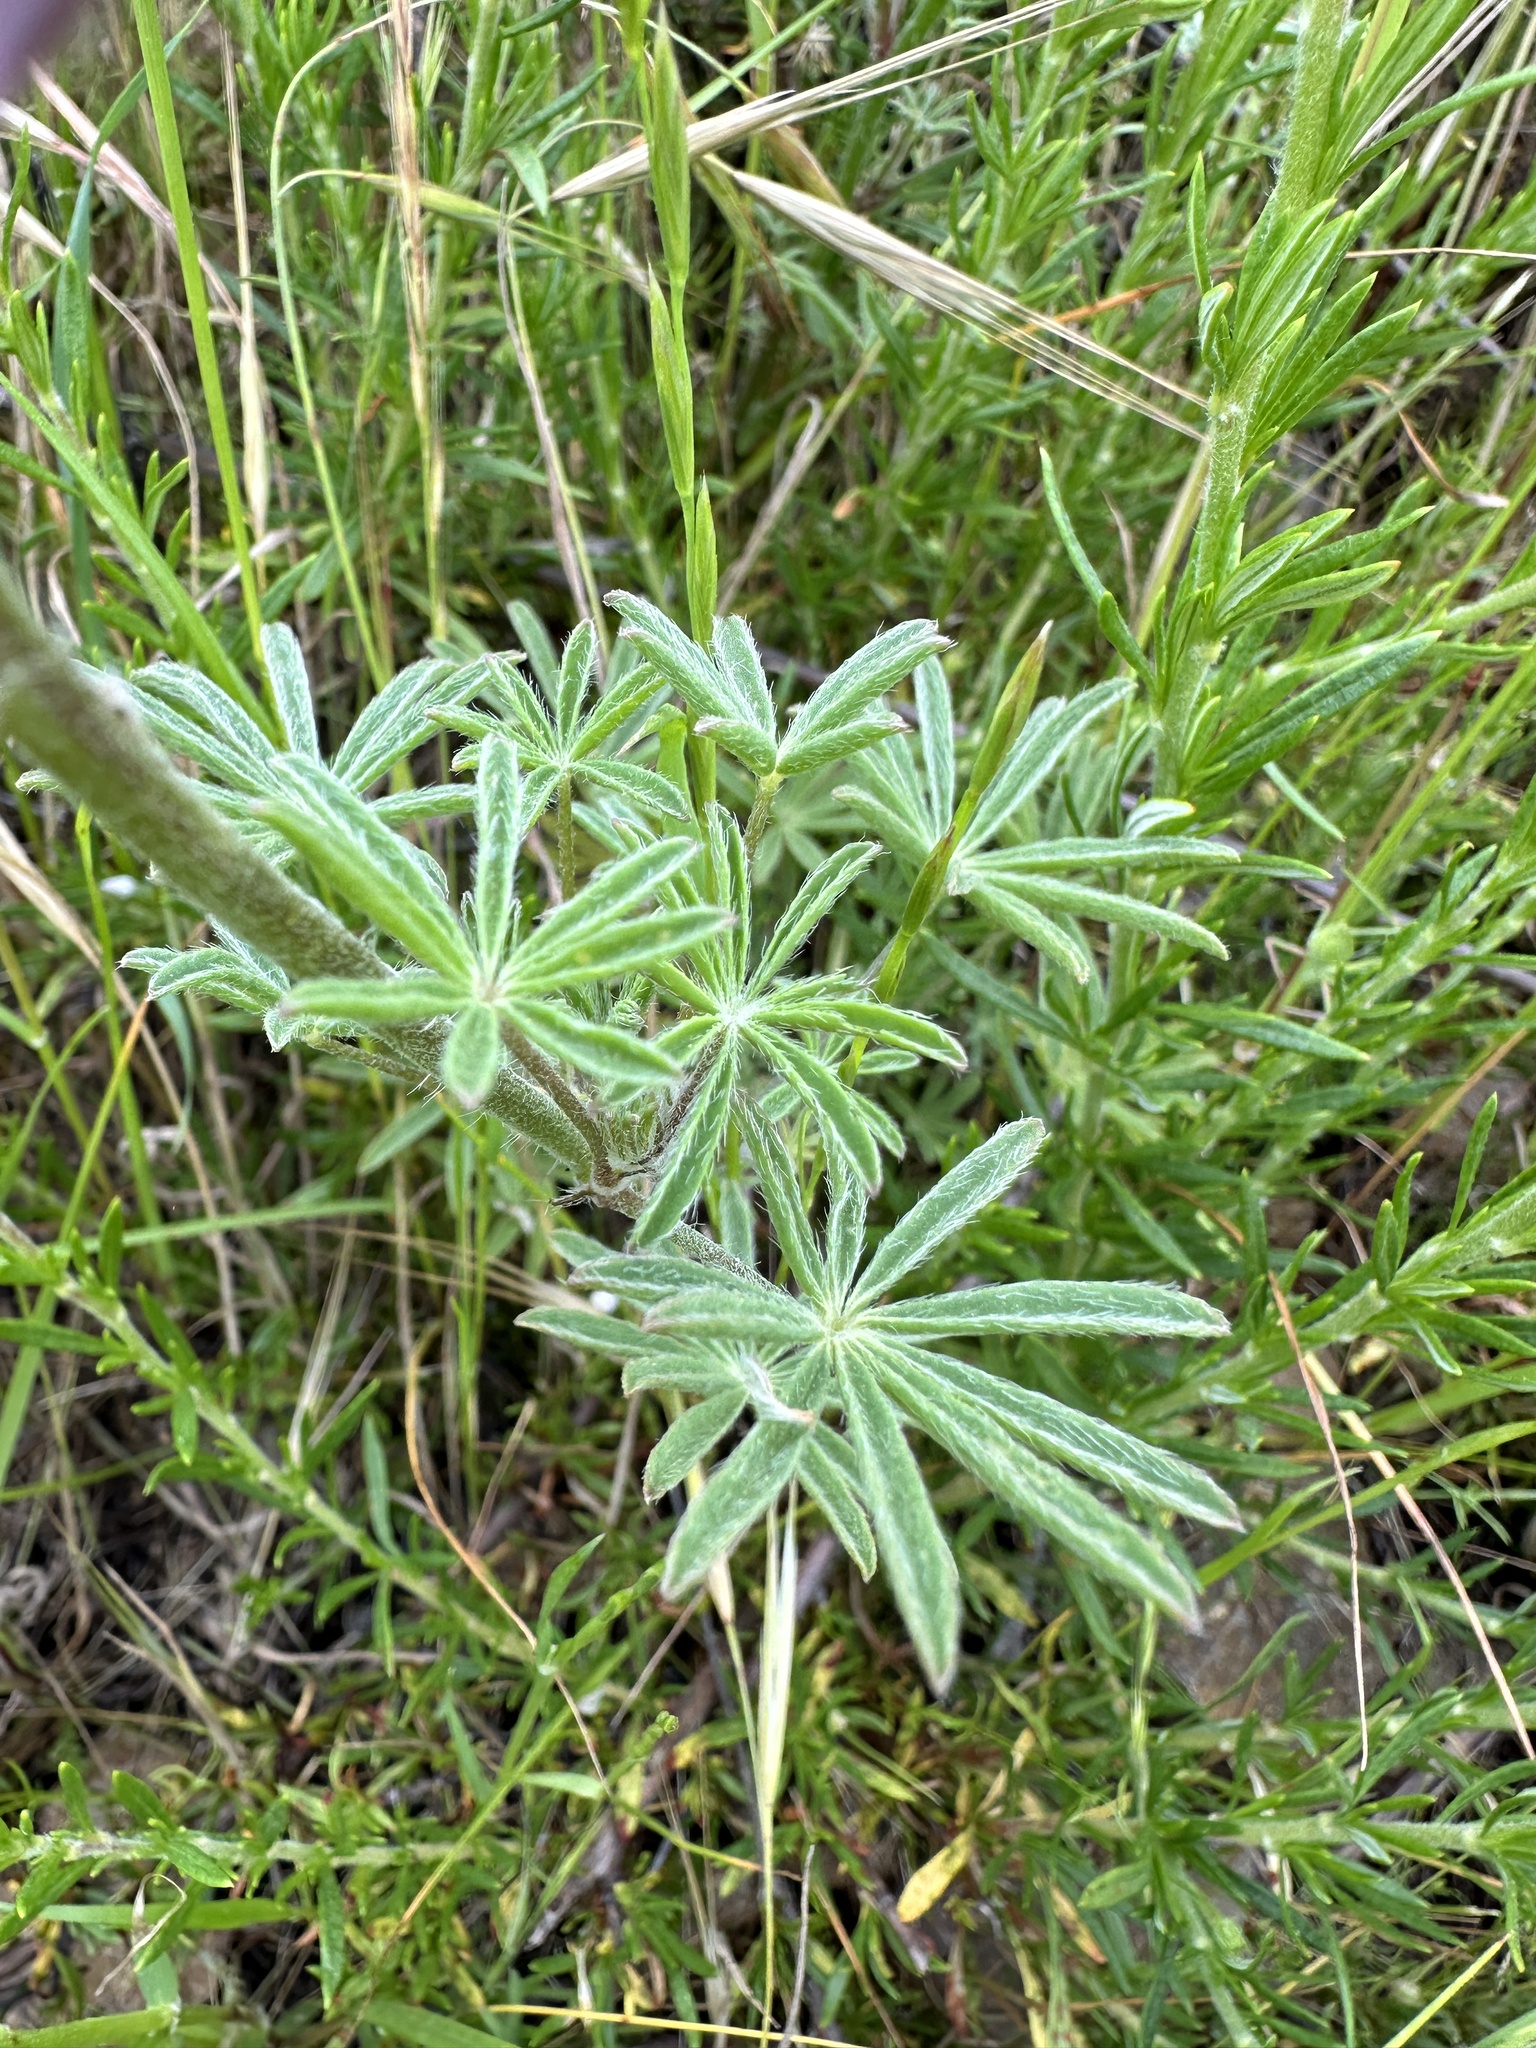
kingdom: Plantae
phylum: Tracheophyta
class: Magnoliopsida
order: Fabales
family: Fabaceae
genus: Lupinus
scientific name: Lupinus sparsiflorus
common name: Coulter's lupine
